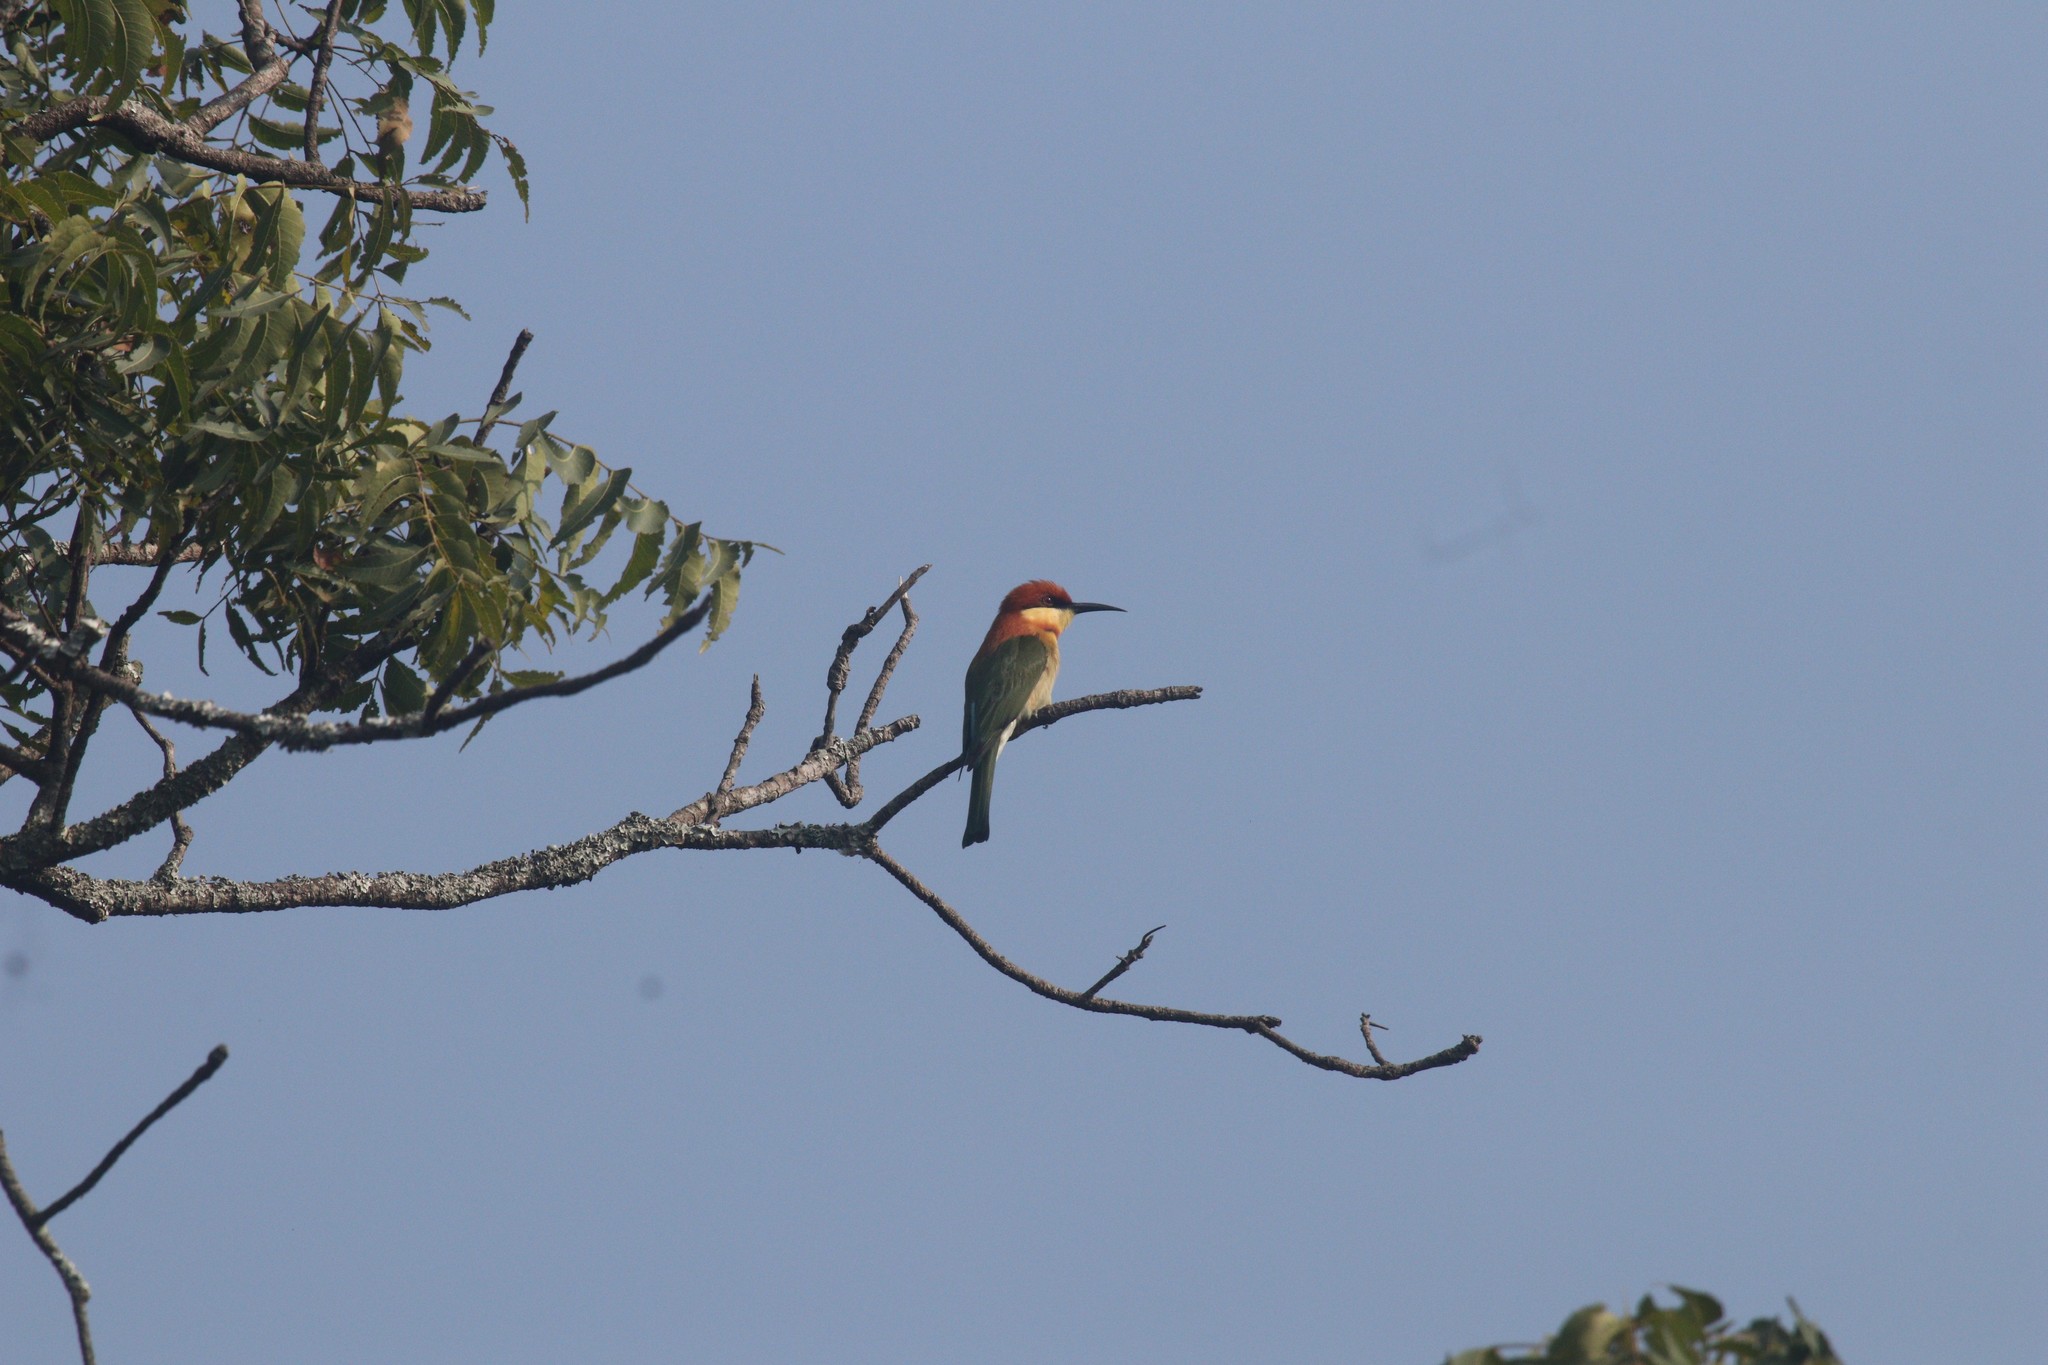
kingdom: Animalia
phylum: Chordata
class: Aves
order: Coraciiformes
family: Meropidae
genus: Merops
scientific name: Merops leschenaulti
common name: Chestnut-headed bee-eater
